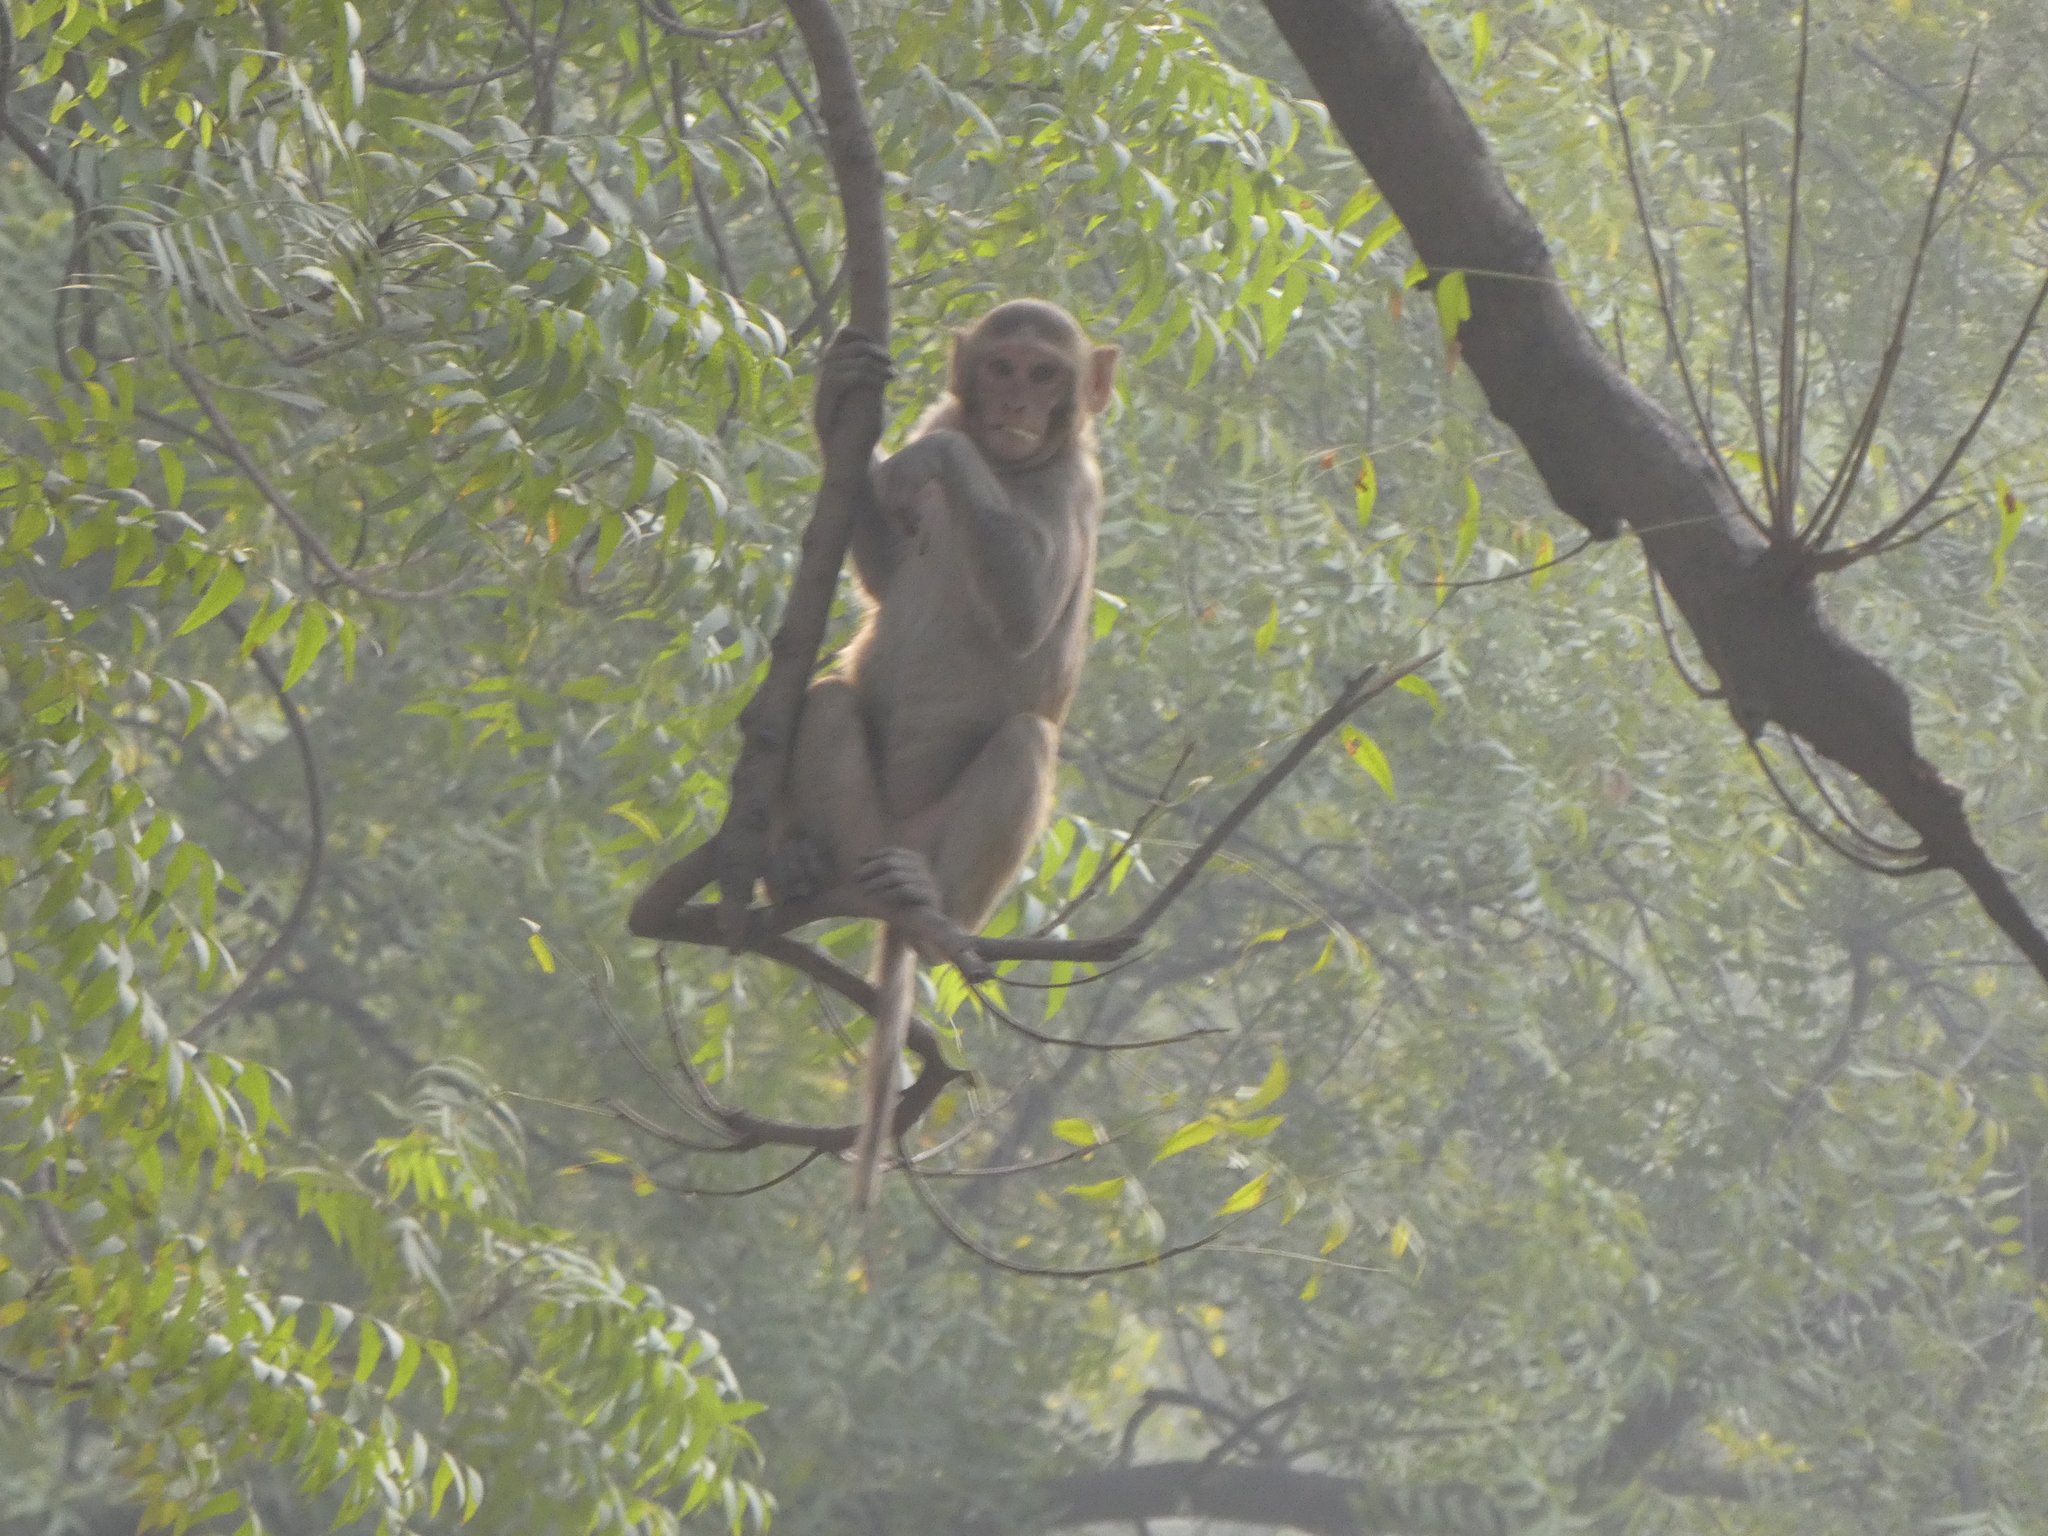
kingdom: Animalia
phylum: Chordata
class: Mammalia
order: Primates
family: Cercopithecidae
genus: Macaca
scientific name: Macaca mulatta
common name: Rhesus monkey
